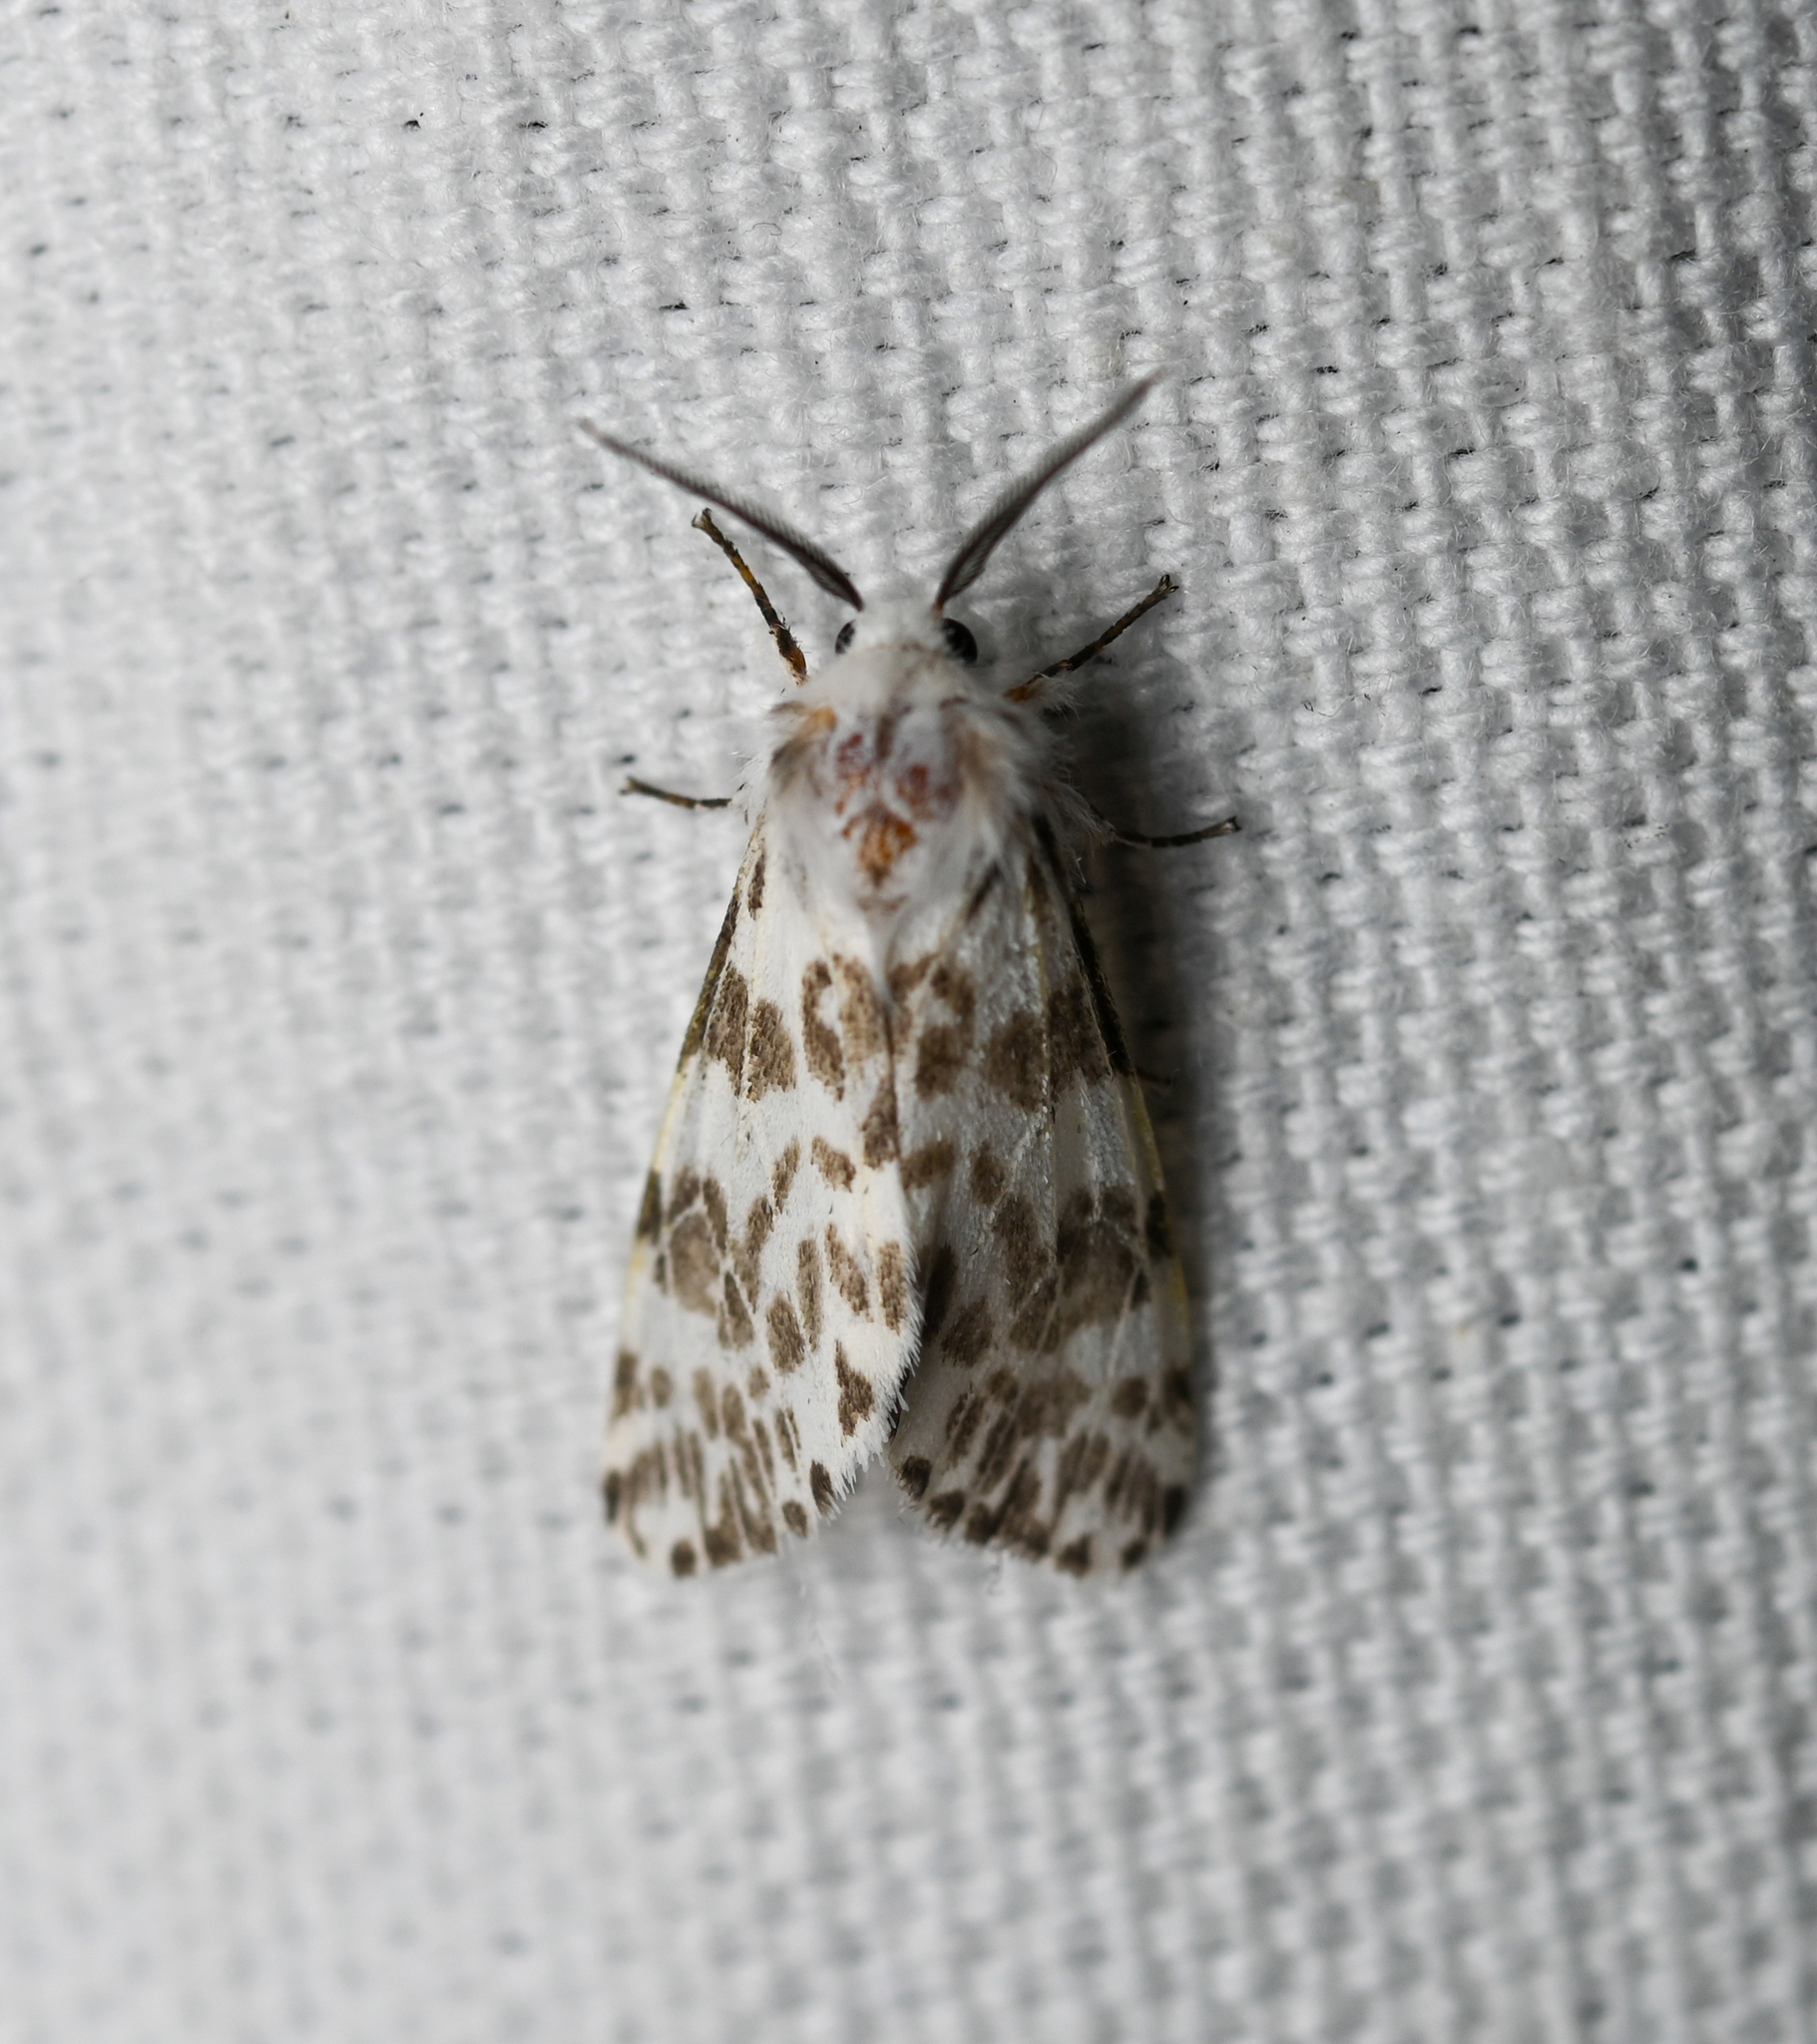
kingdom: Animalia
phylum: Arthropoda
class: Insecta
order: Lepidoptera
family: Erebidae
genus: Hyphantria
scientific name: Hyphantria cunea
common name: American white moth
